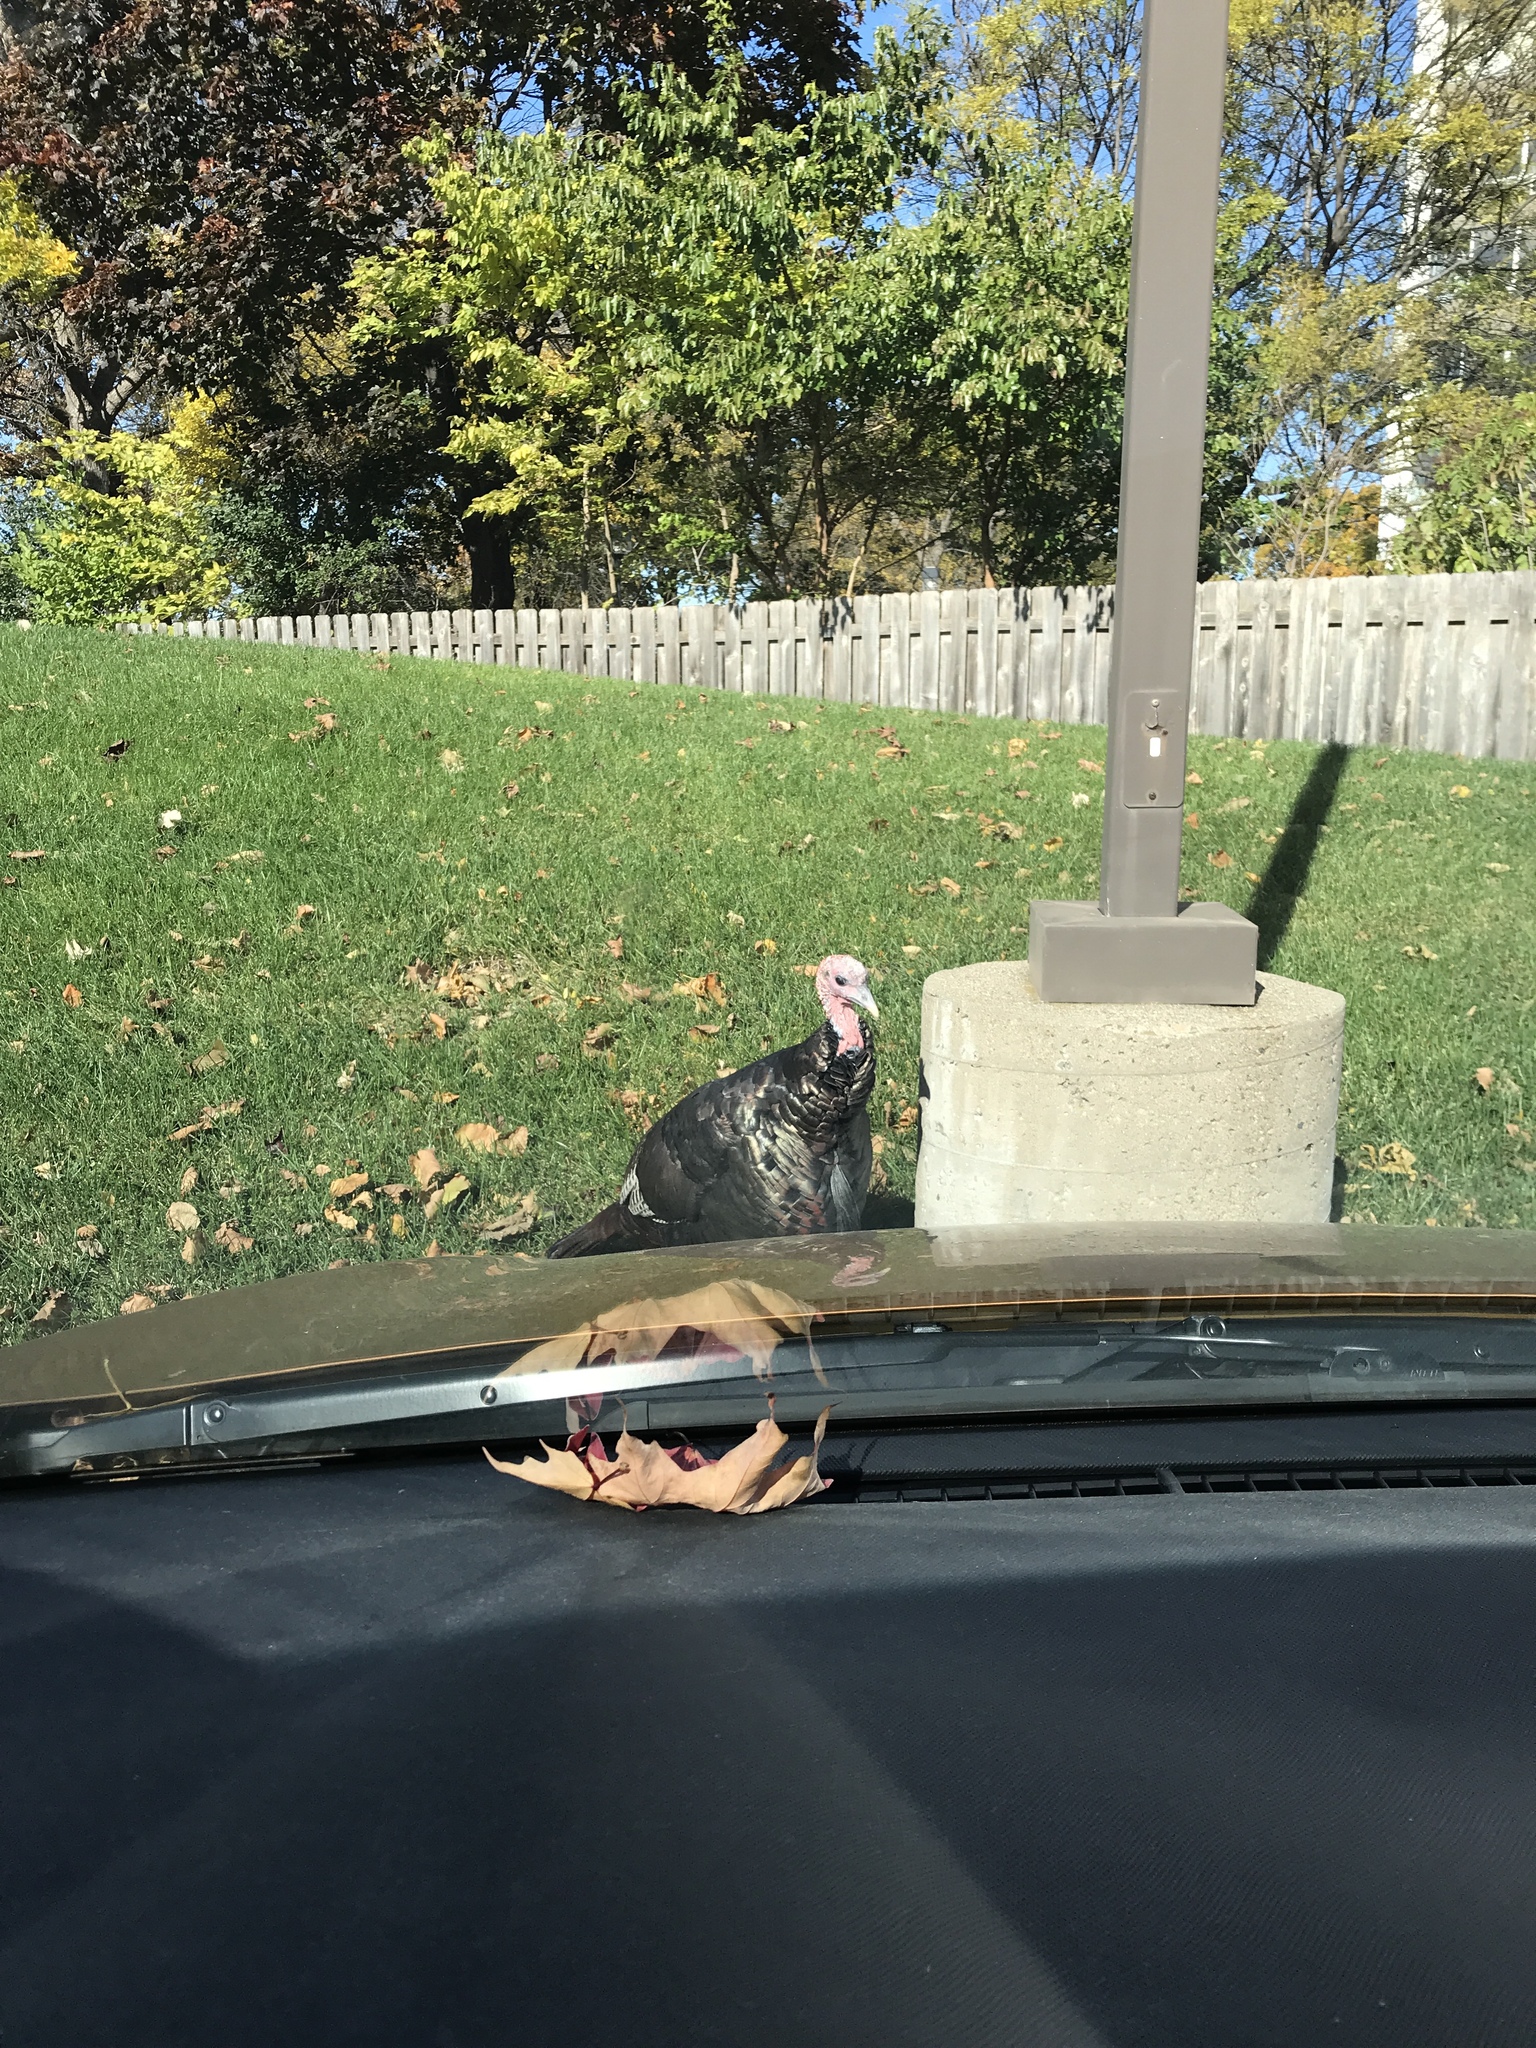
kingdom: Animalia
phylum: Chordata
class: Aves
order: Galliformes
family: Phasianidae
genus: Meleagris
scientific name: Meleagris gallopavo
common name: Wild turkey
